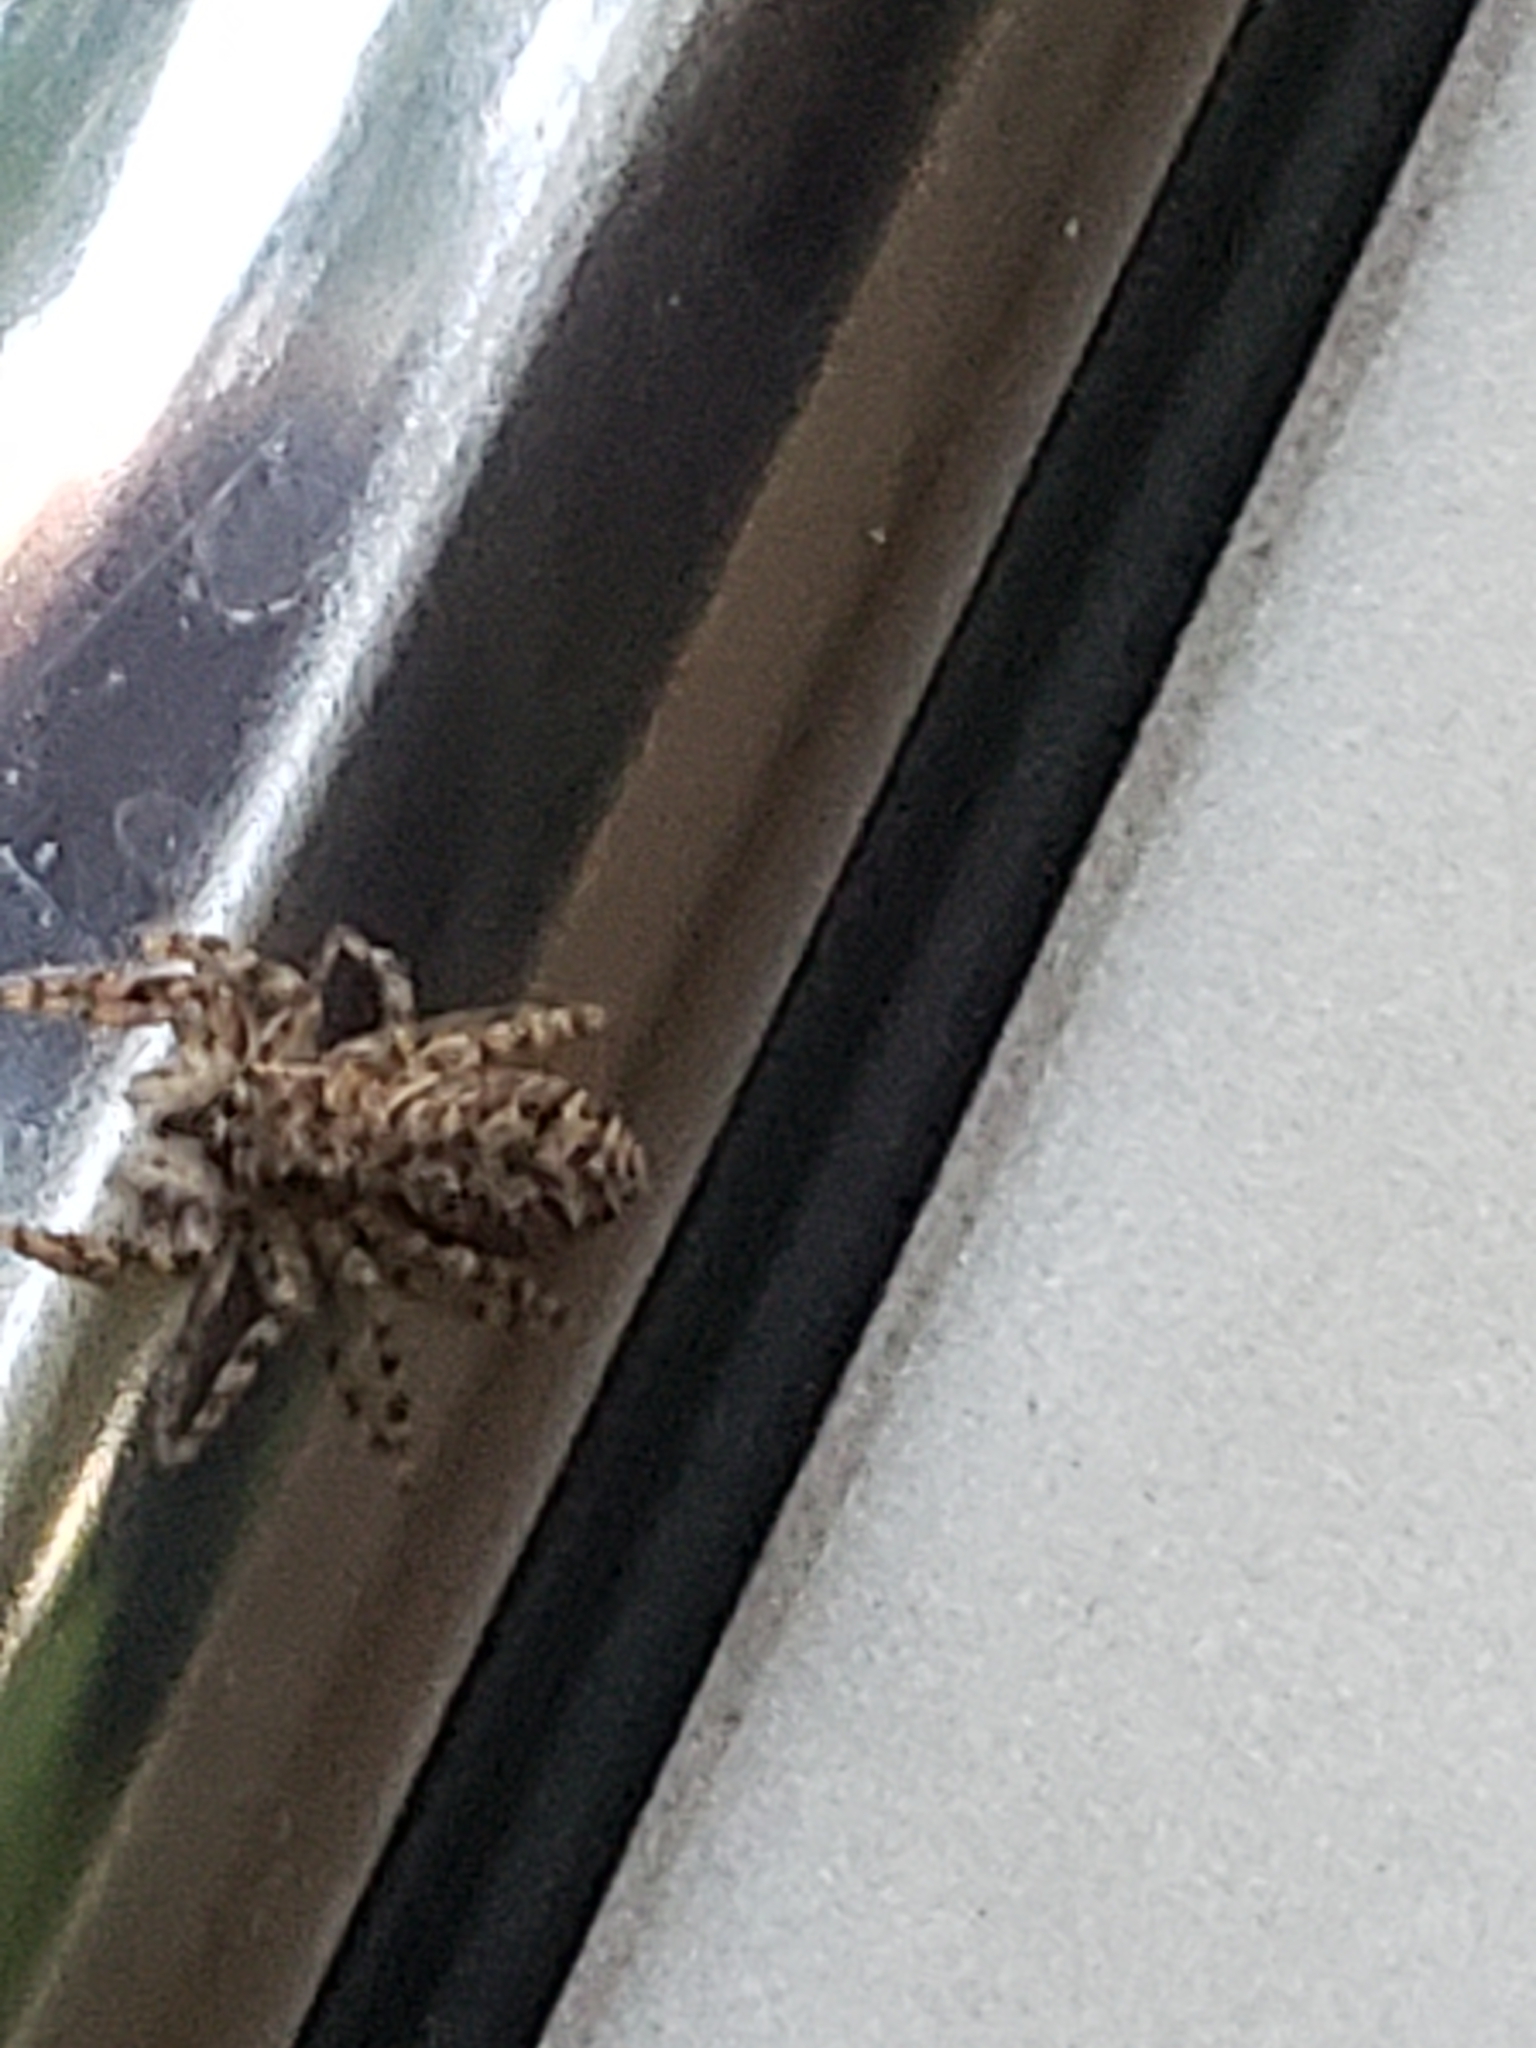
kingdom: Animalia
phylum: Arthropoda
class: Arachnida
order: Araneae
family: Salticidae
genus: Platycryptus
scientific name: Platycryptus undatus
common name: Tan jumping spider
